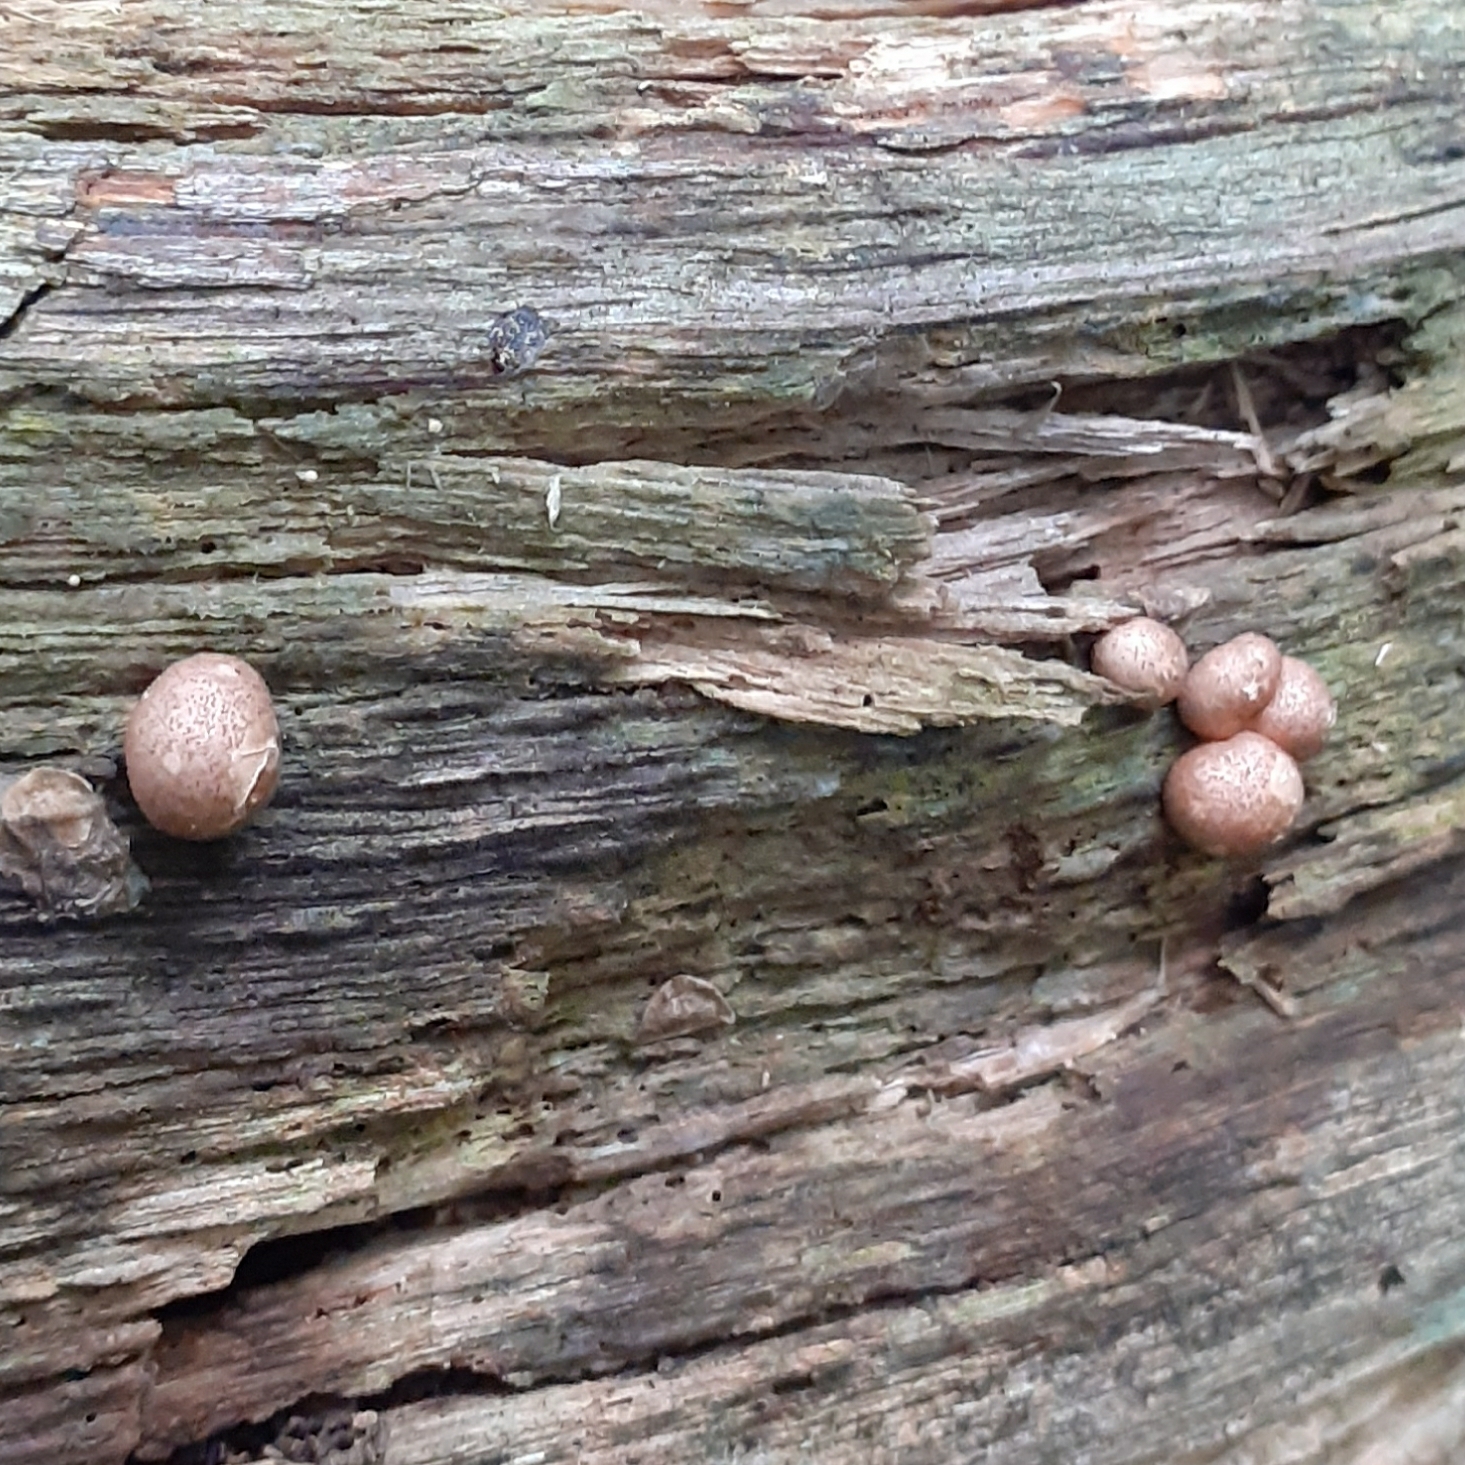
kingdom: Protozoa
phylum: Mycetozoa
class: Myxomycetes
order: Cribrariales
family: Tubiferaceae
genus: Lycogala
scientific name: Lycogala epidendrum
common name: Wolf's milk
